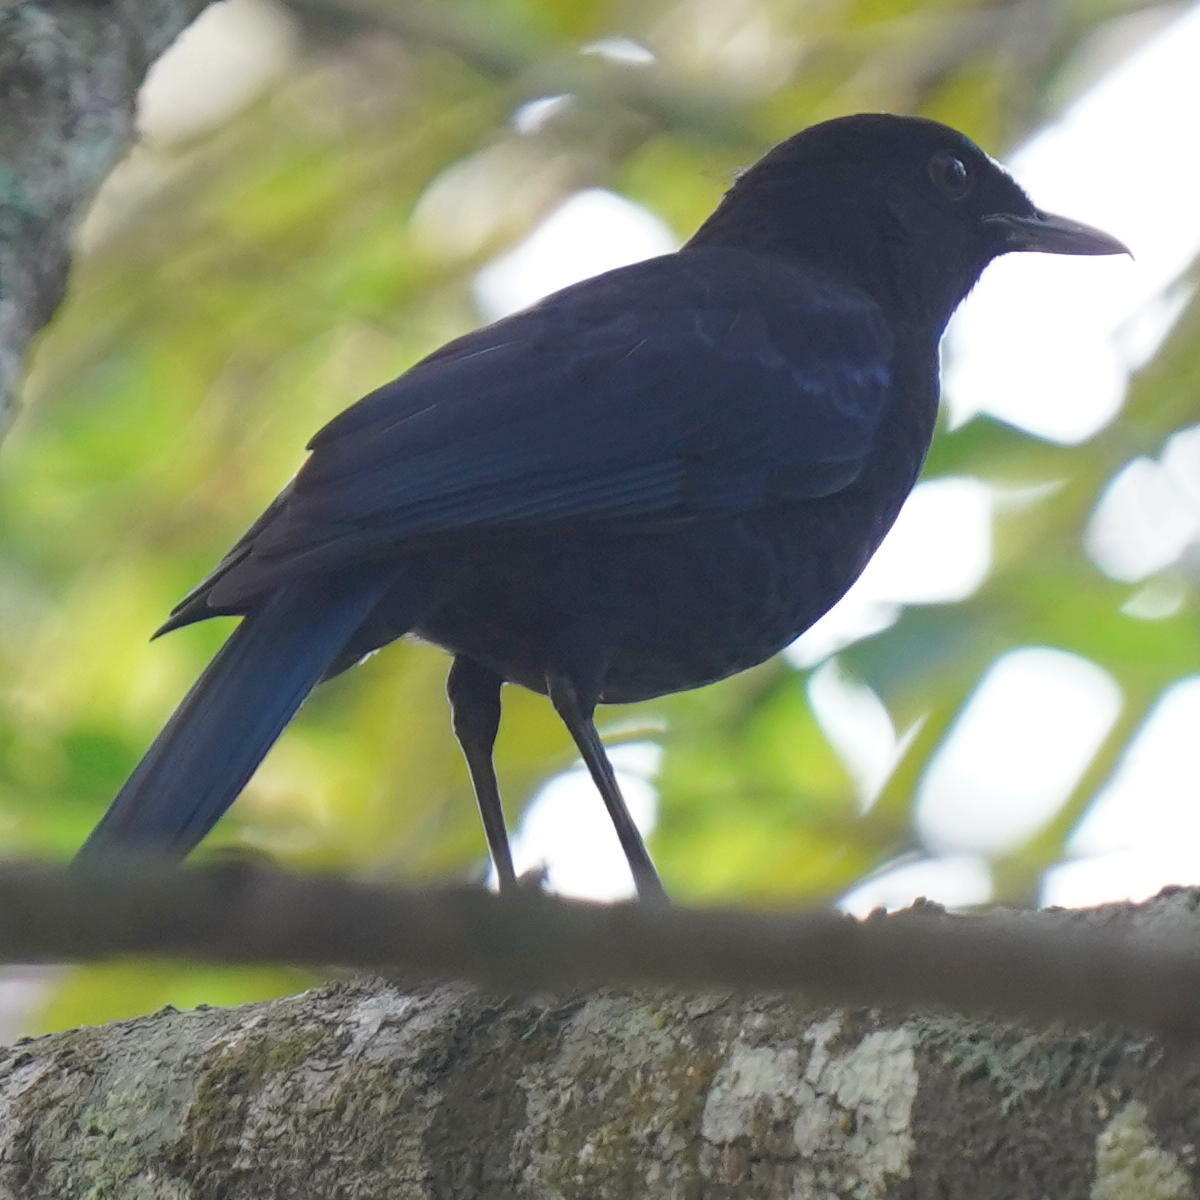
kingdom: Animalia
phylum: Chordata
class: Aves
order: Passeriformes
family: Muscicapidae
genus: Myophonus
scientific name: Myophonus horsfieldii
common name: Malabar whistling-thrush
